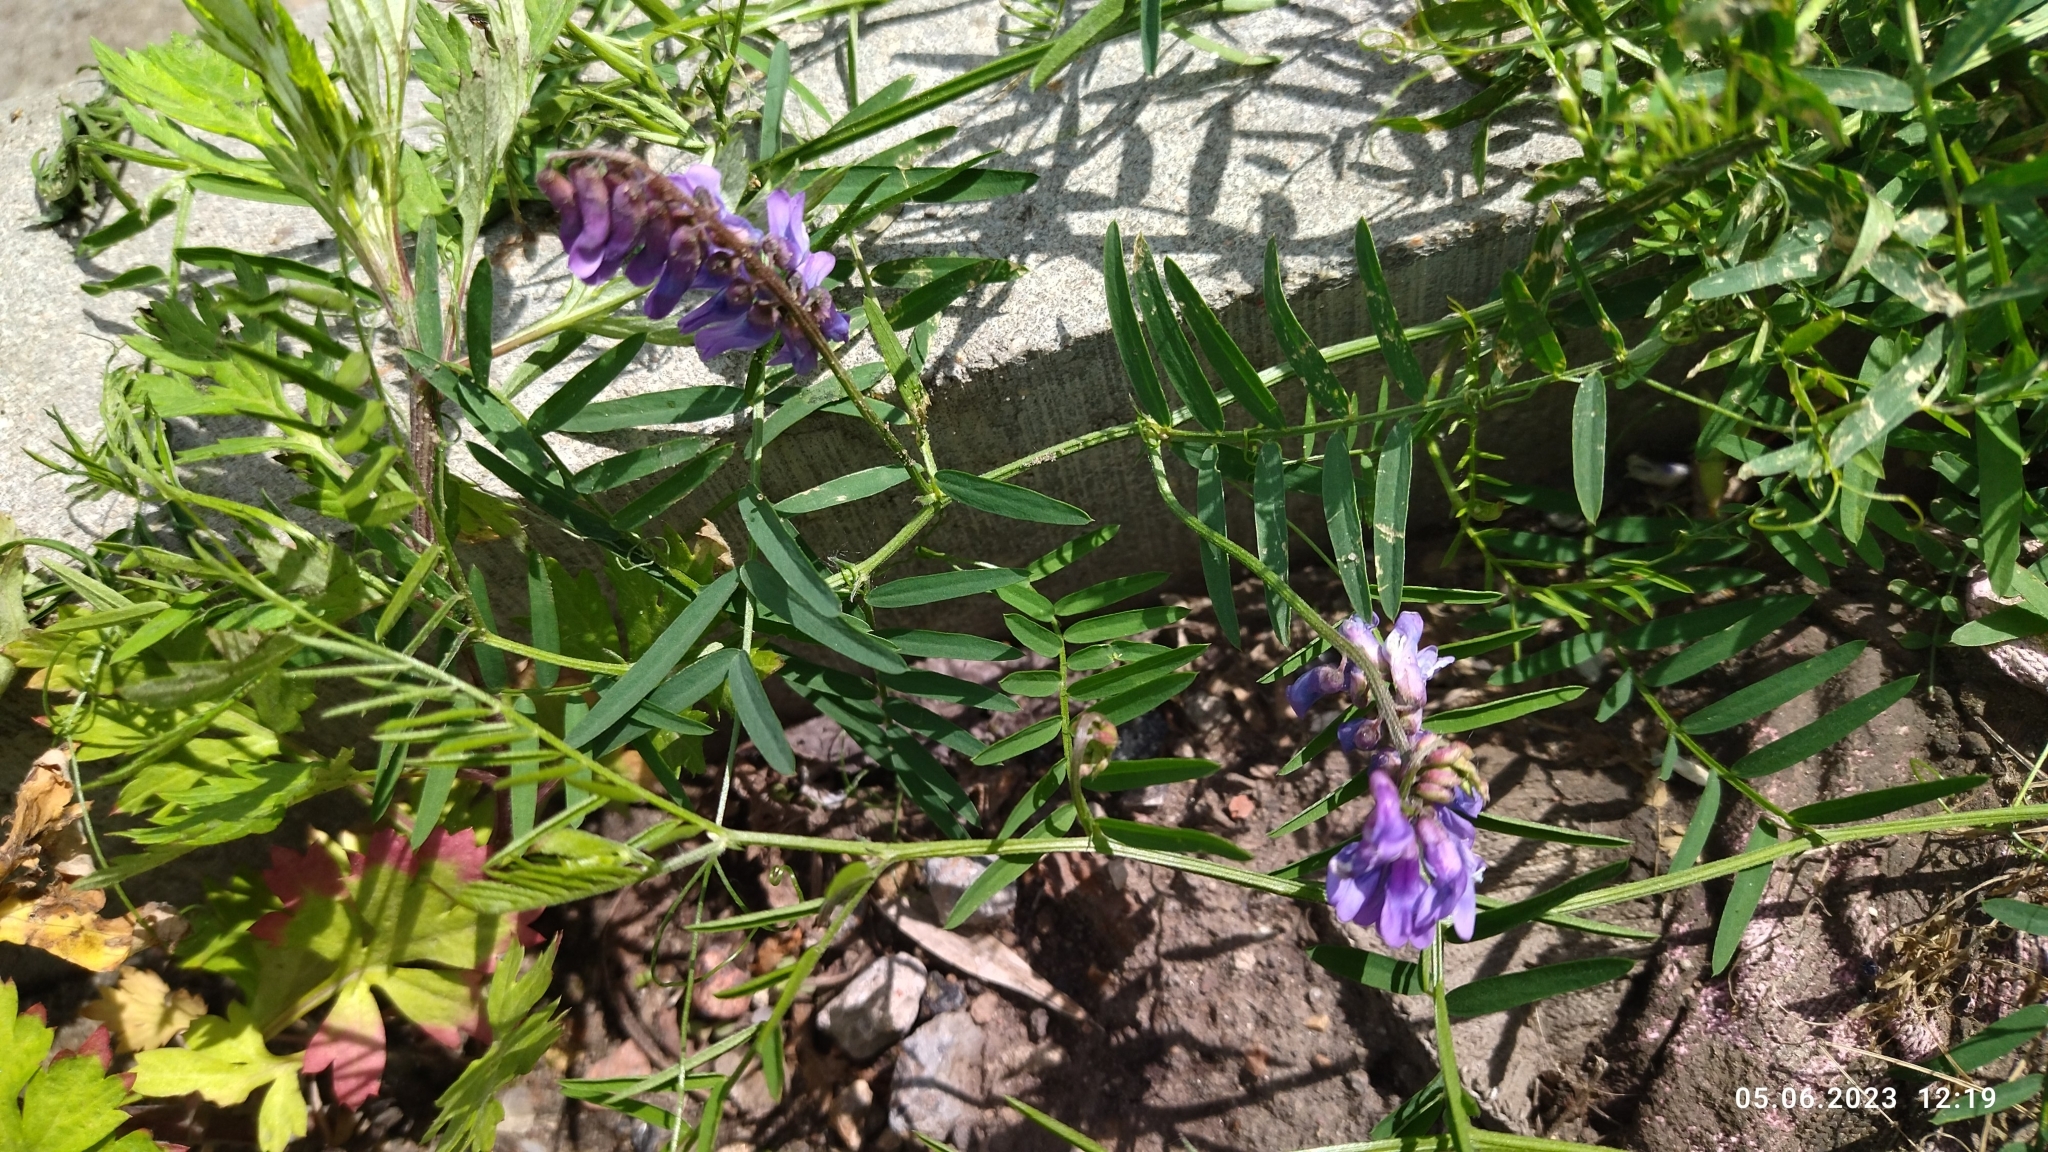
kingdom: Plantae
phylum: Tracheophyta
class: Magnoliopsida
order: Fabales
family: Fabaceae
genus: Vicia
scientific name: Vicia cracca
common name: Bird vetch
